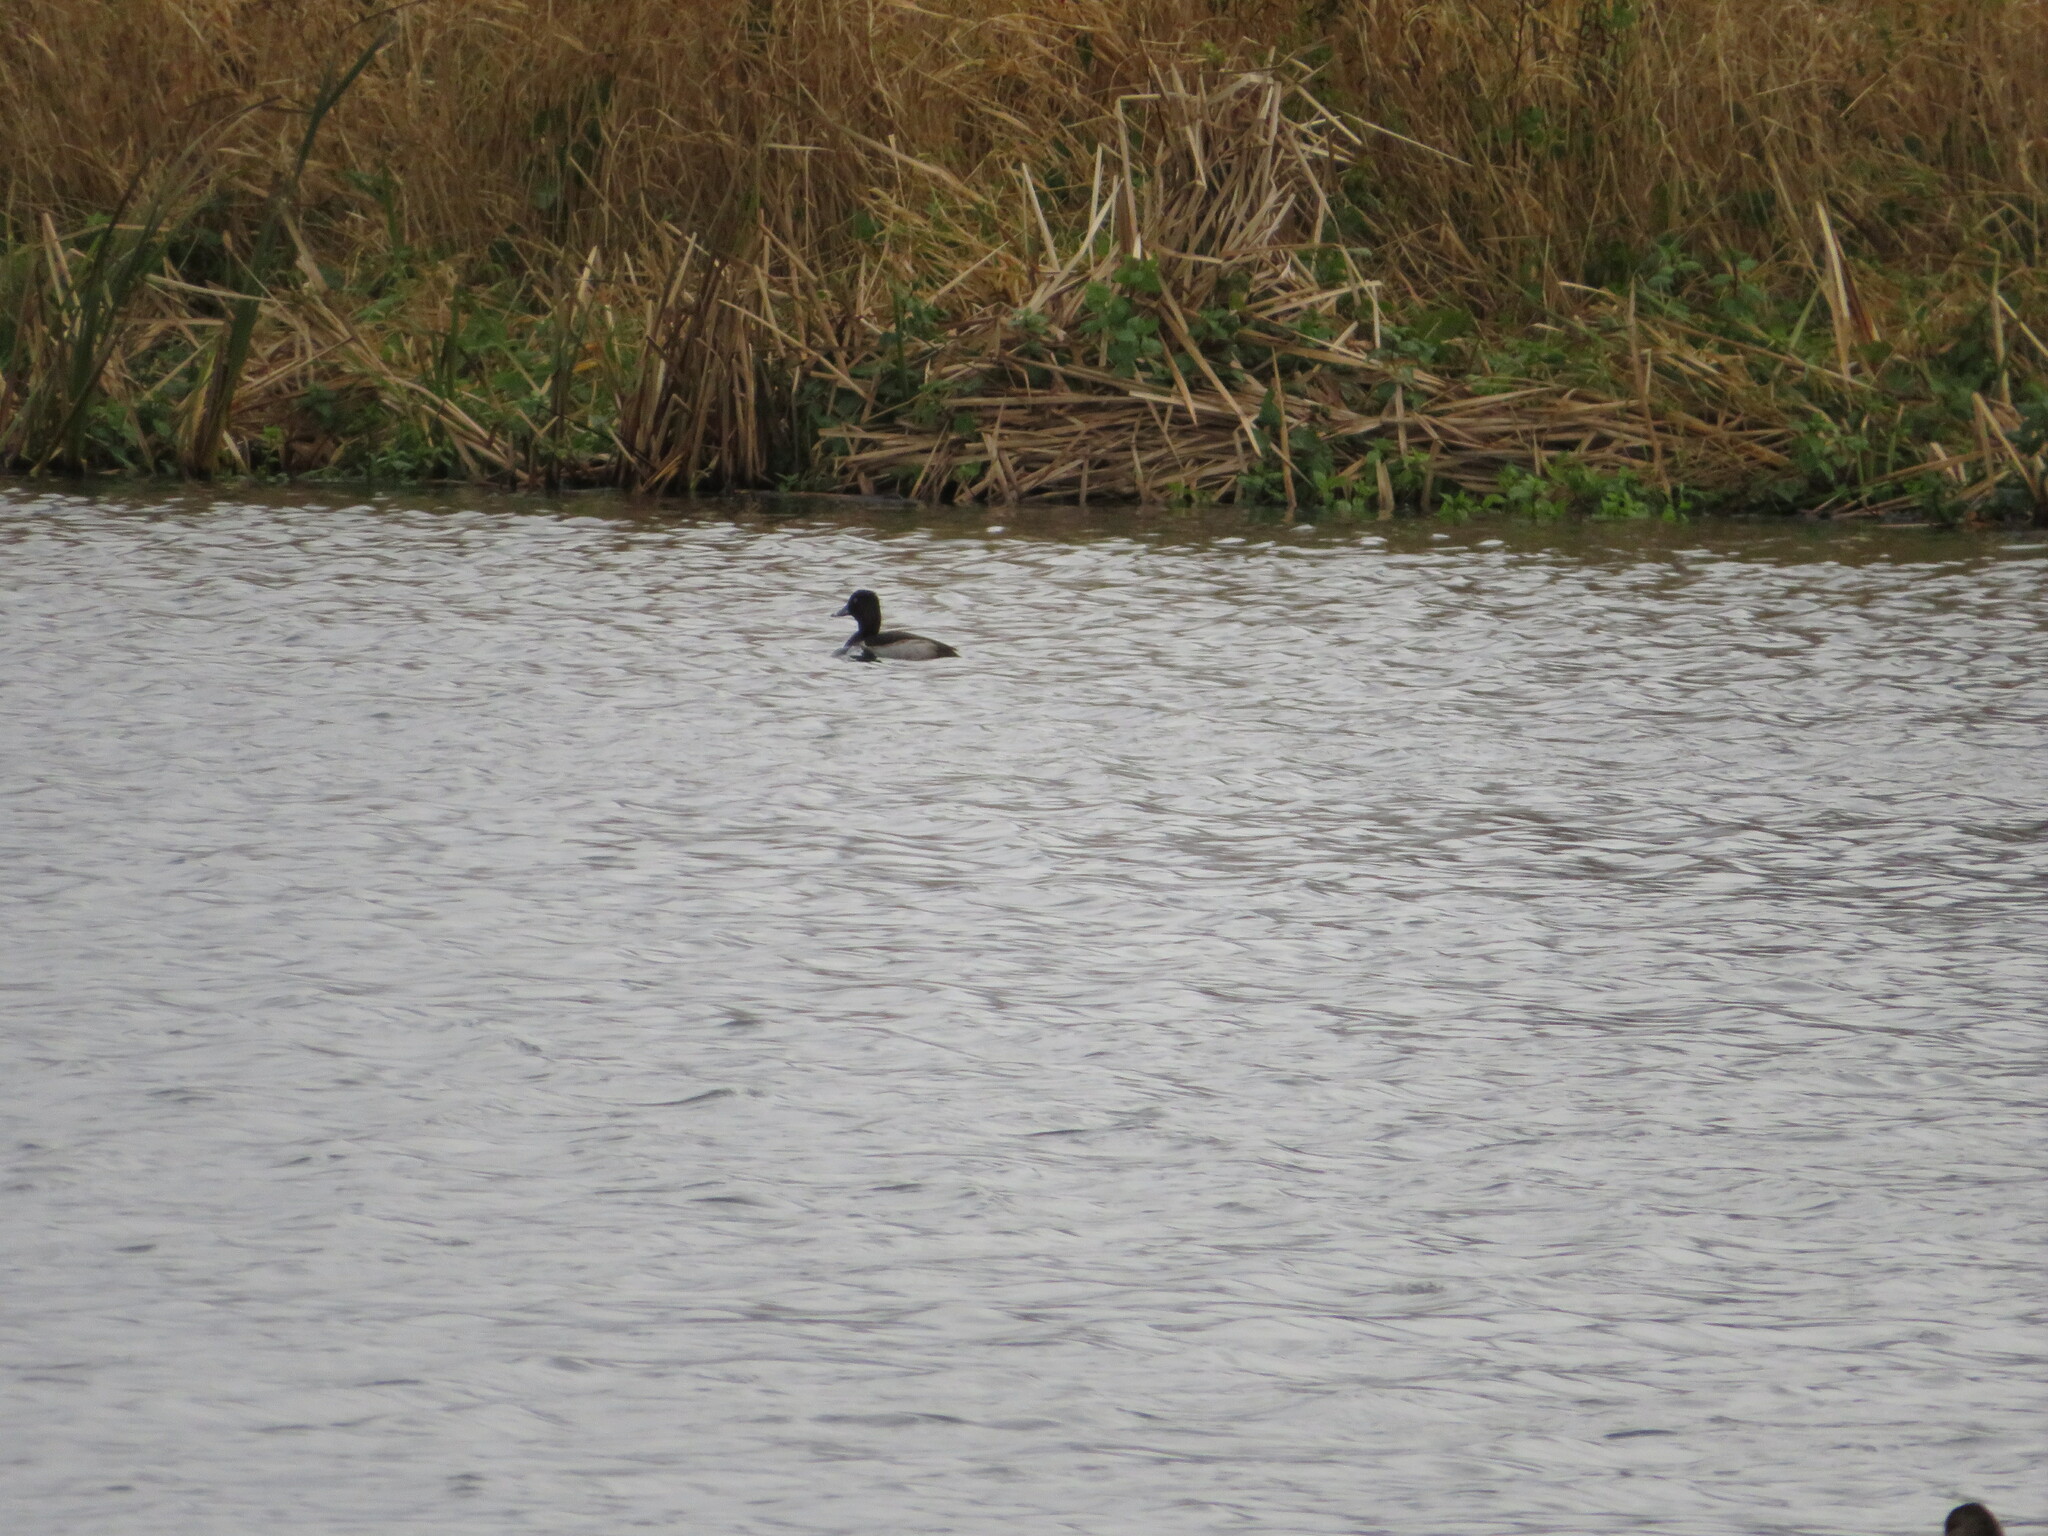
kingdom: Animalia
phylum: Chordata
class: Aves
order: Anseriformes
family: Anatidae
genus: Aythya
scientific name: Aythya collaris
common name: Ring-necked duck
